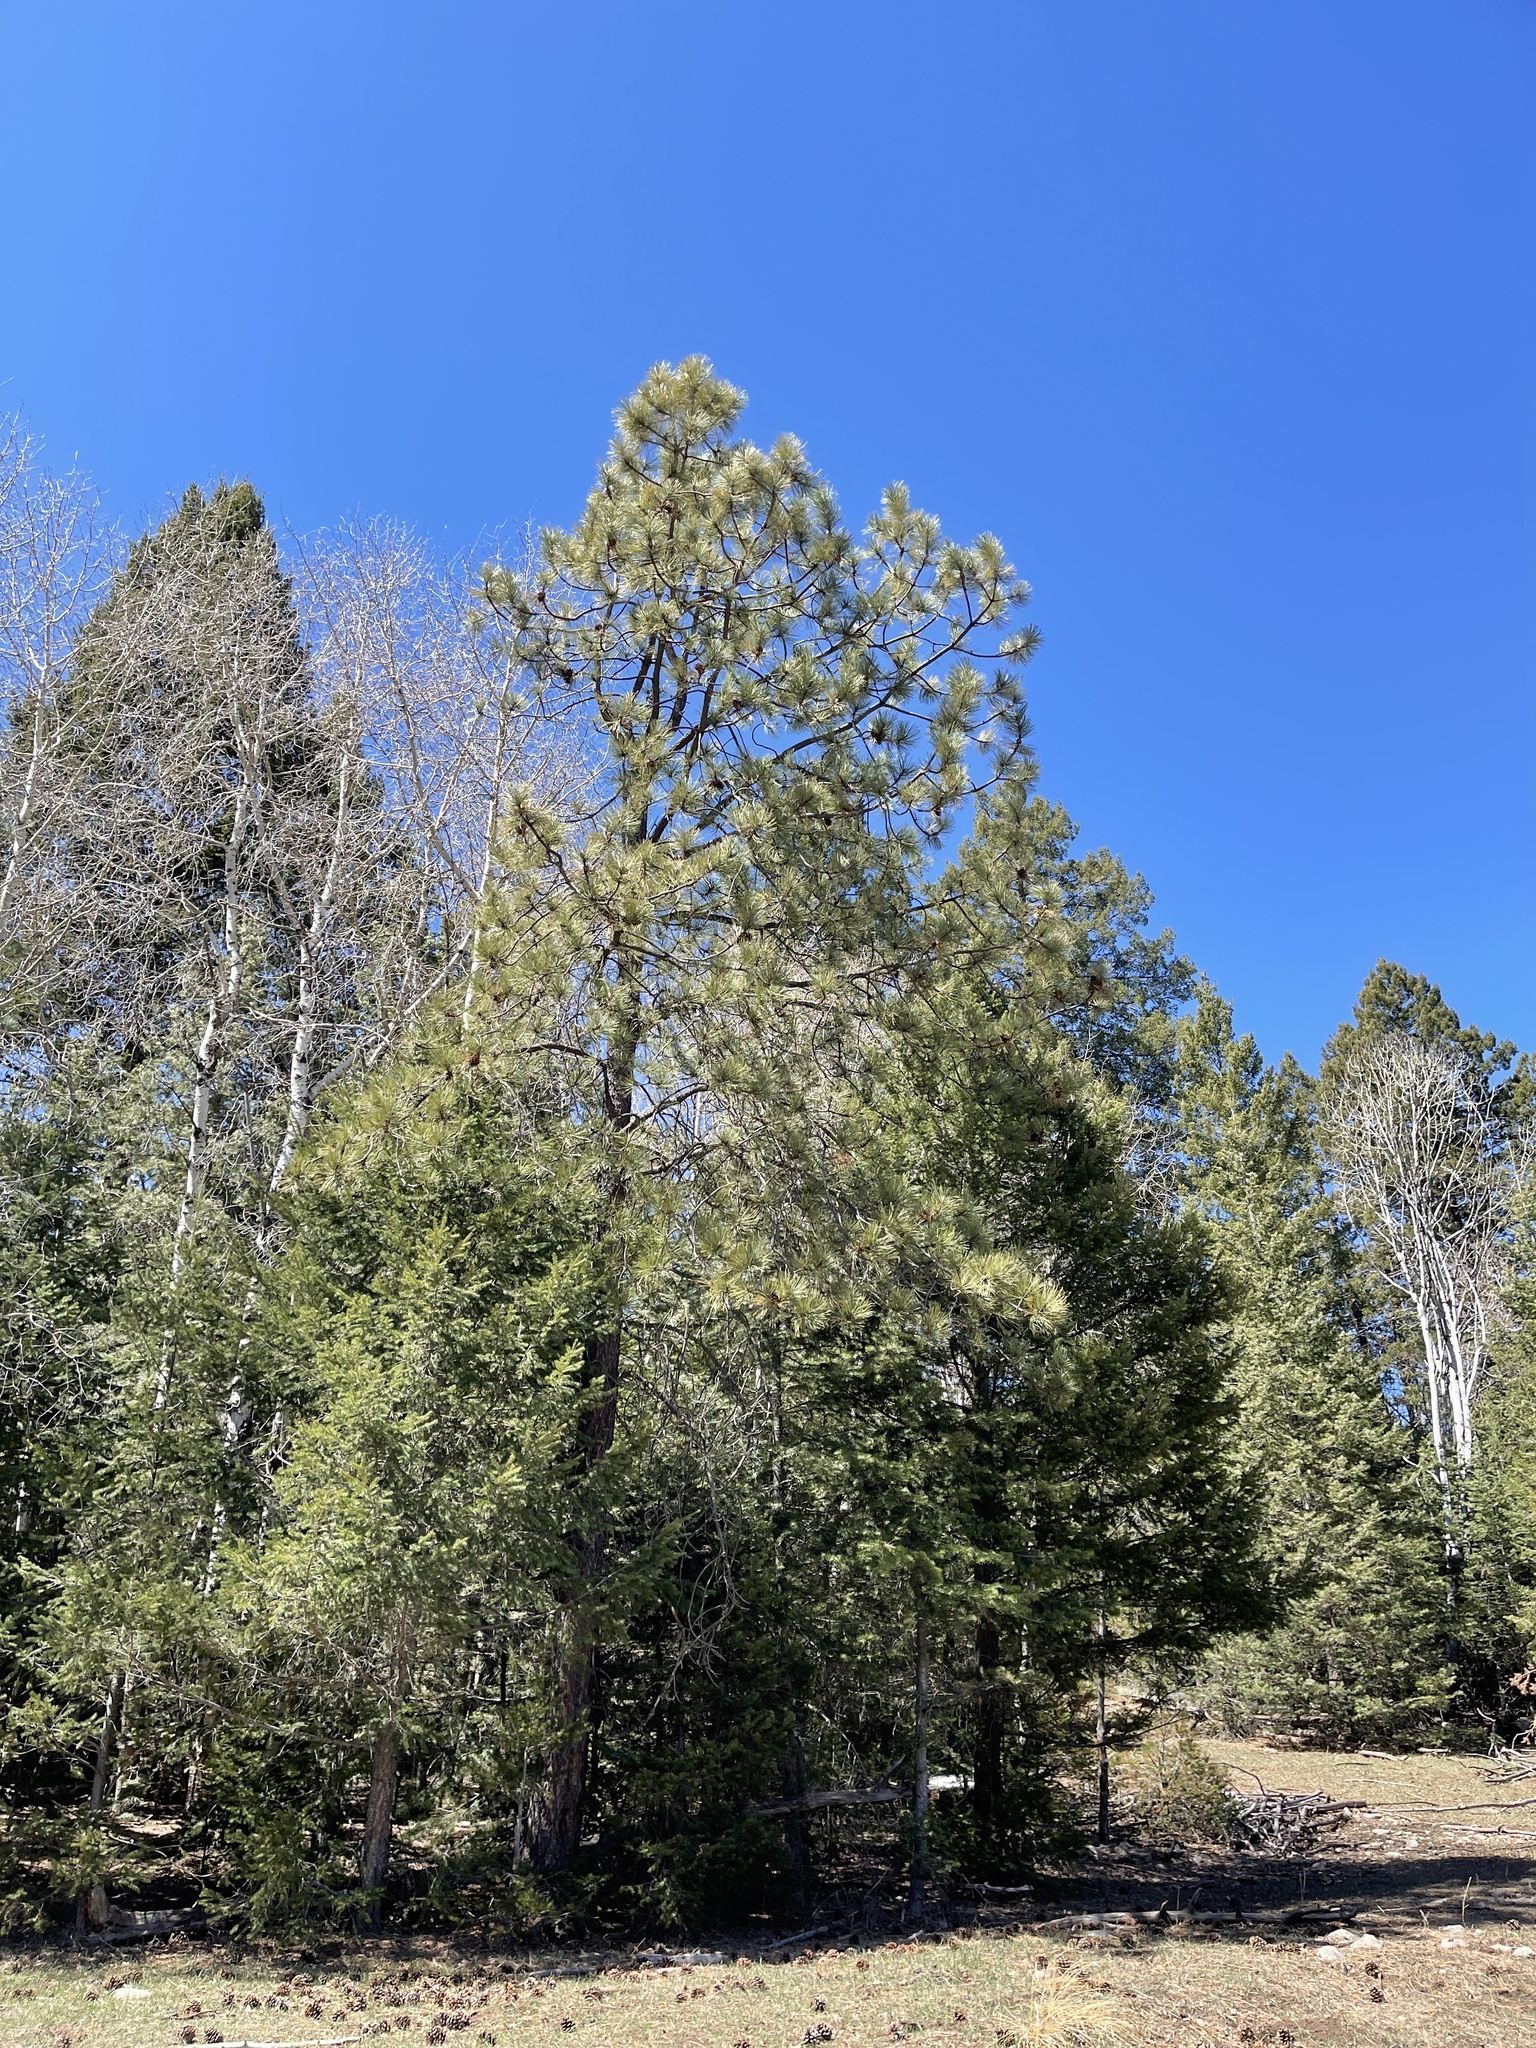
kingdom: Plantae
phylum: Tracheophyta
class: Pinopsida
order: Pinales
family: Pinaceae
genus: Pinus
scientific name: Pinus ponderosa
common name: Western yellow-pine
